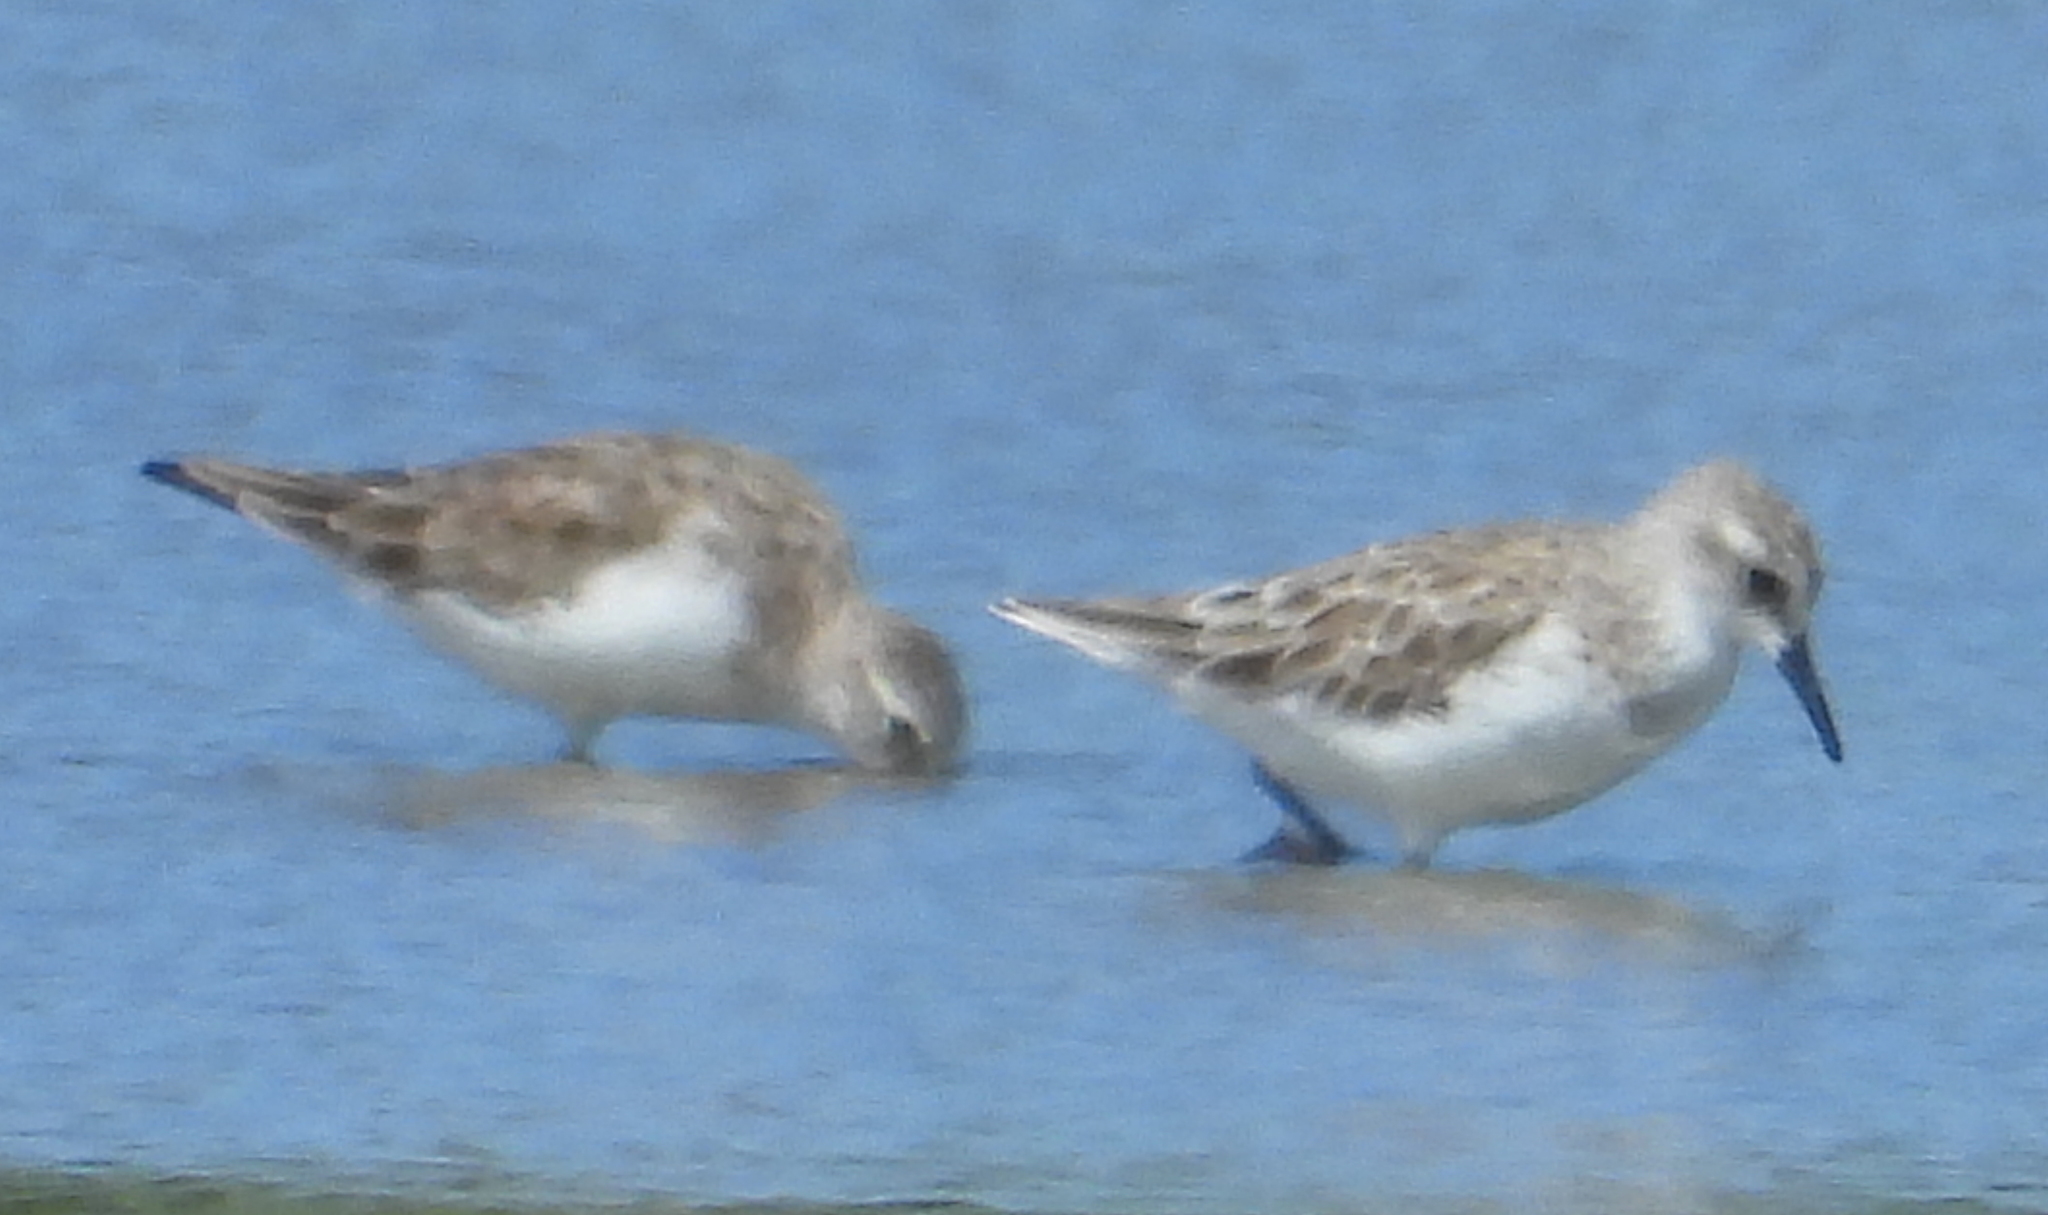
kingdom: Animalia
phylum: Chordata
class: Aves
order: Charadriiformes
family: Scolopacidae
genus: Calidris
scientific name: Calidris minuta
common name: Little stint
